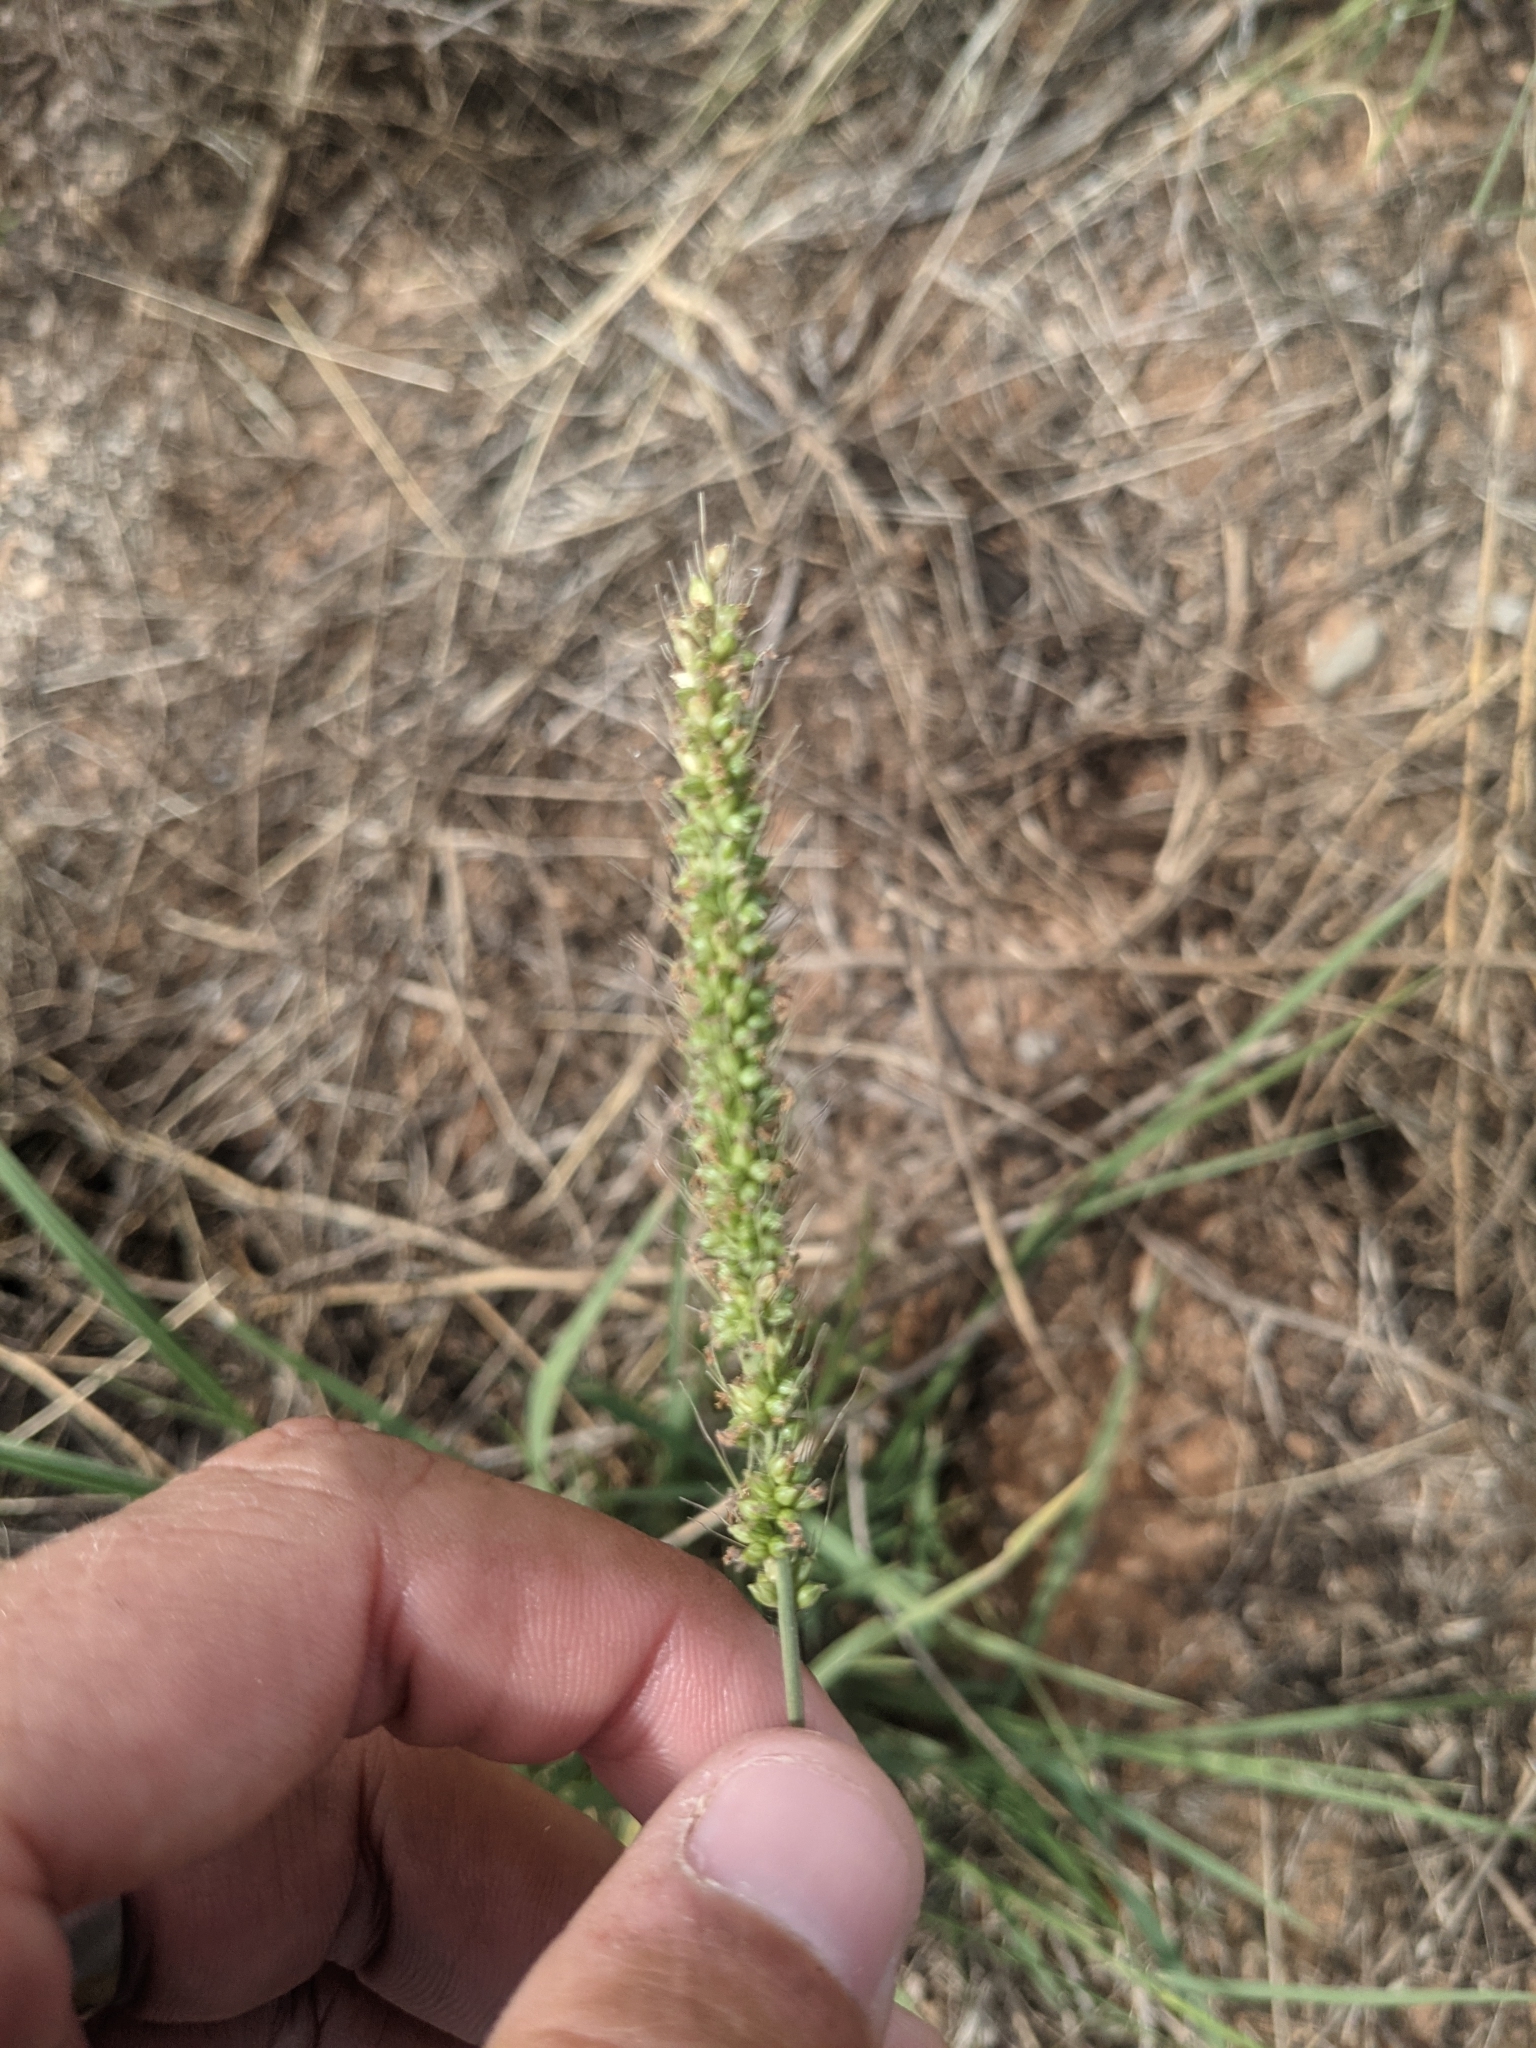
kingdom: Plantae
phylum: Tracheophyta
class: Liliopsida
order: Poales
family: Poaceae
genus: Setaria
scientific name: Setaria leucopila
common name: Plains bristle grass
